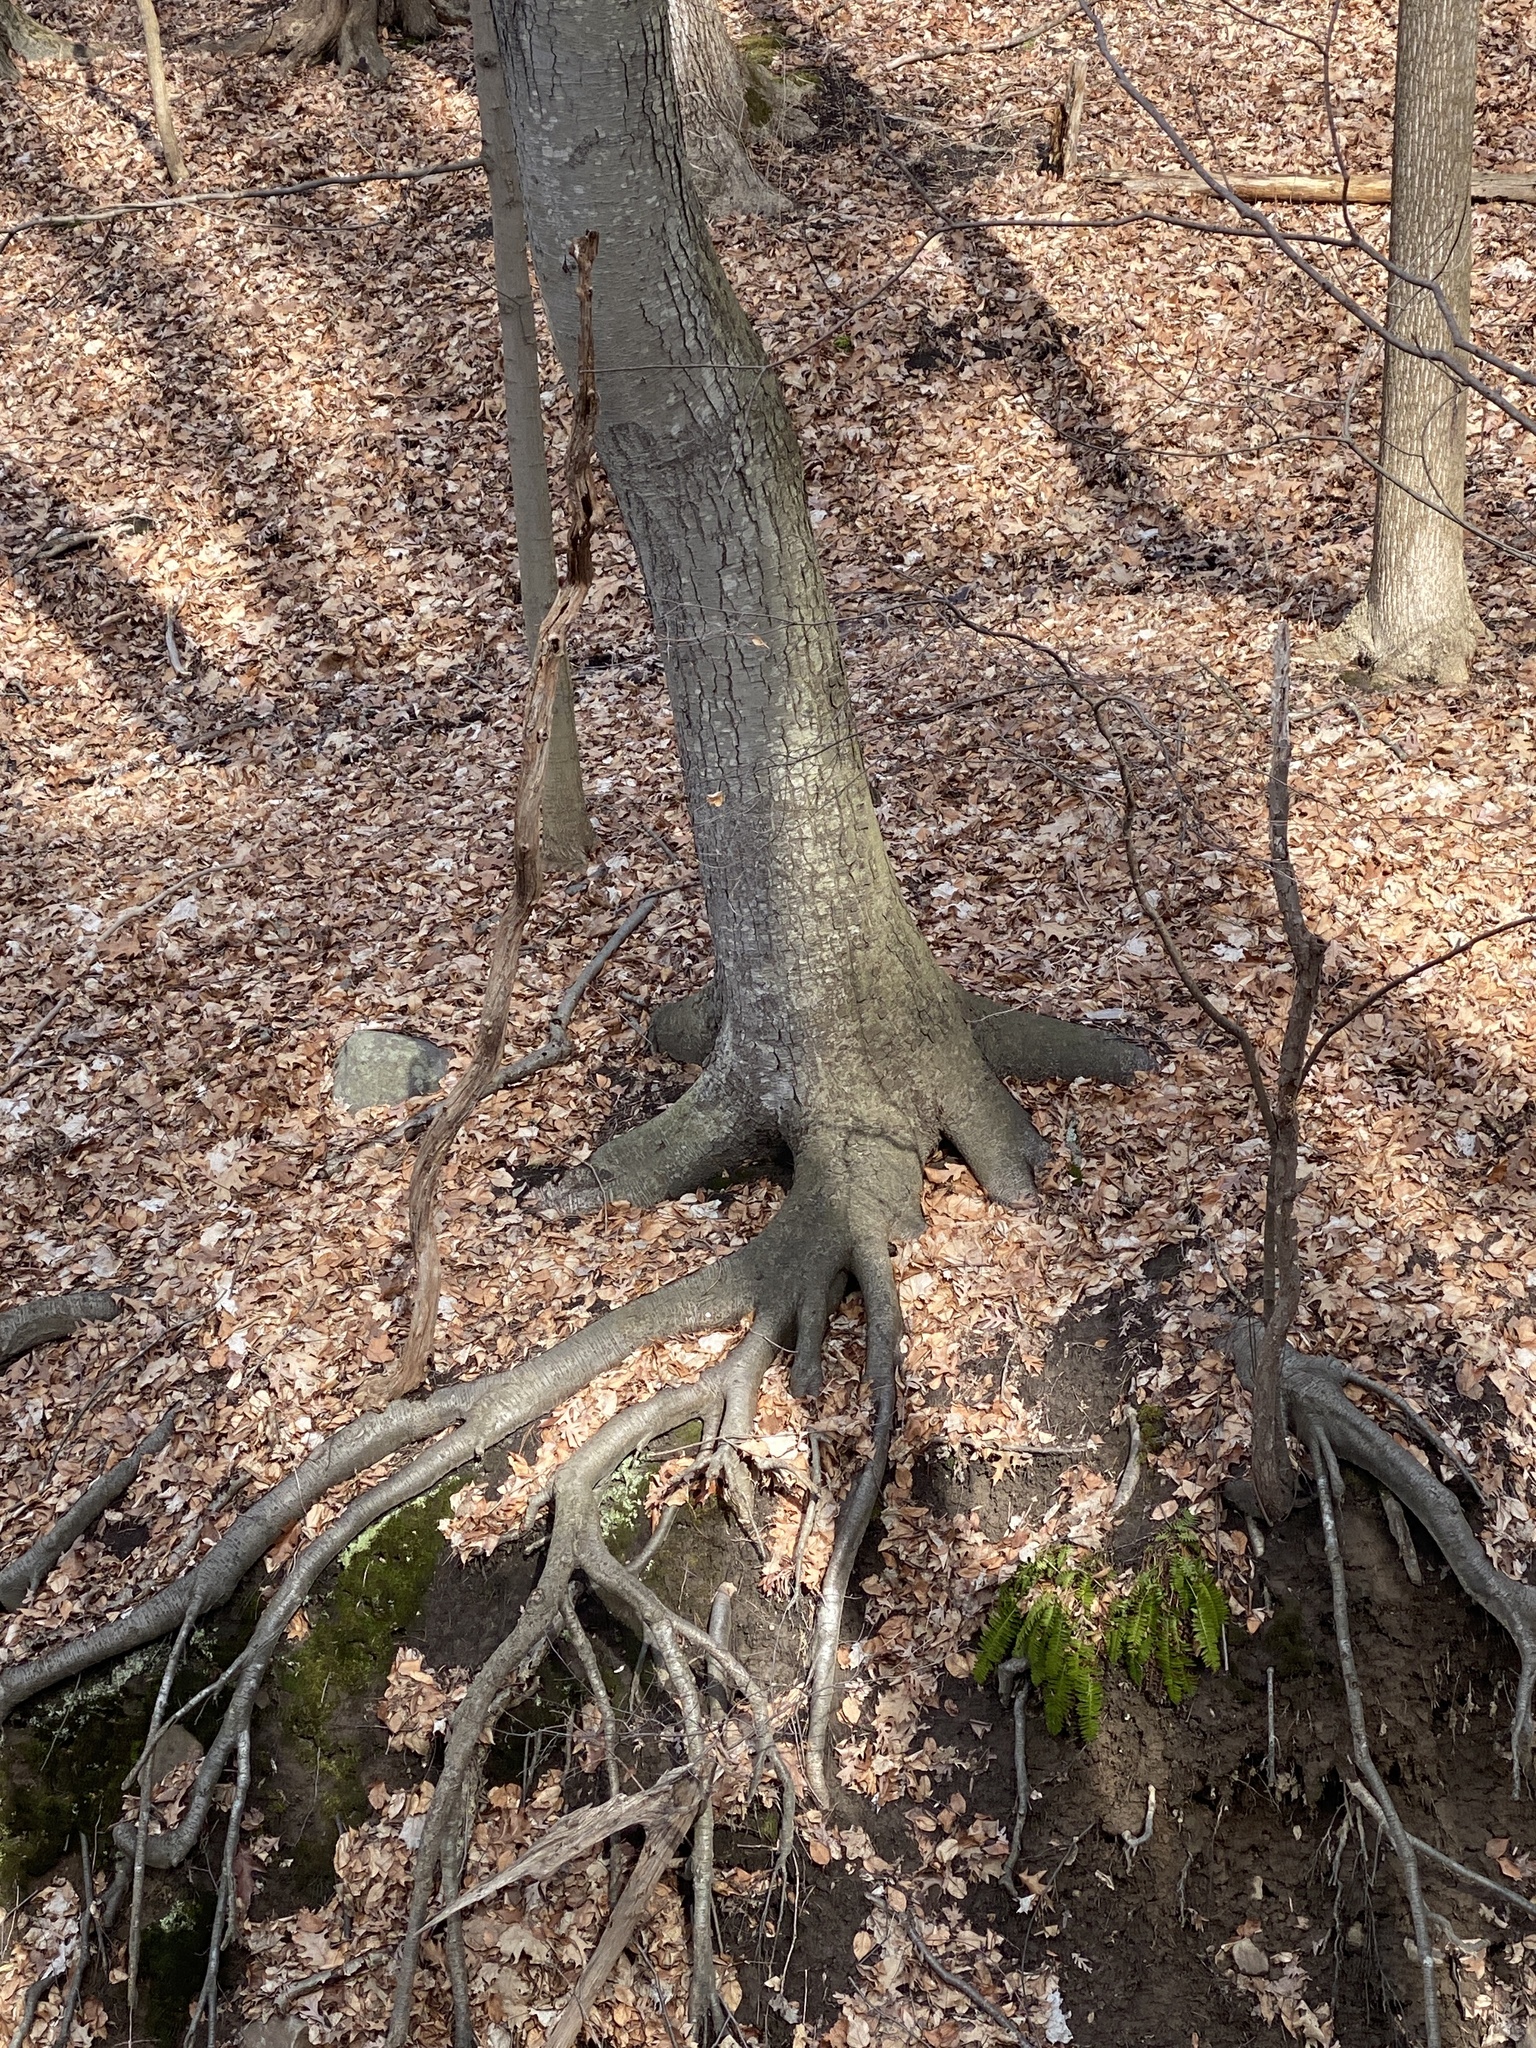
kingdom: Plantae
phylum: Tracheophyta
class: Magnoliopsida
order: Fagales
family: Betulaceae
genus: Betula
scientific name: Betula lenta
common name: Black birch
